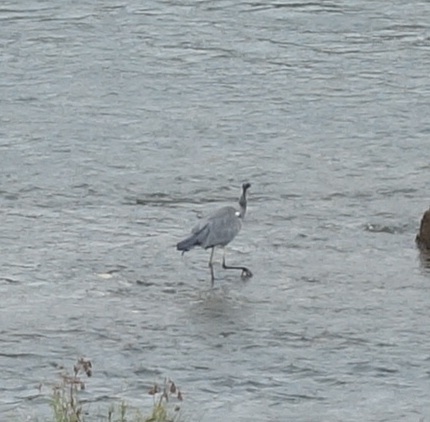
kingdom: Animalia
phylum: Chordata
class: Aves
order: Pelecaniformes
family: Ardeidae
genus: Ardea
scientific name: Ardea cinerea
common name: Grey heron
